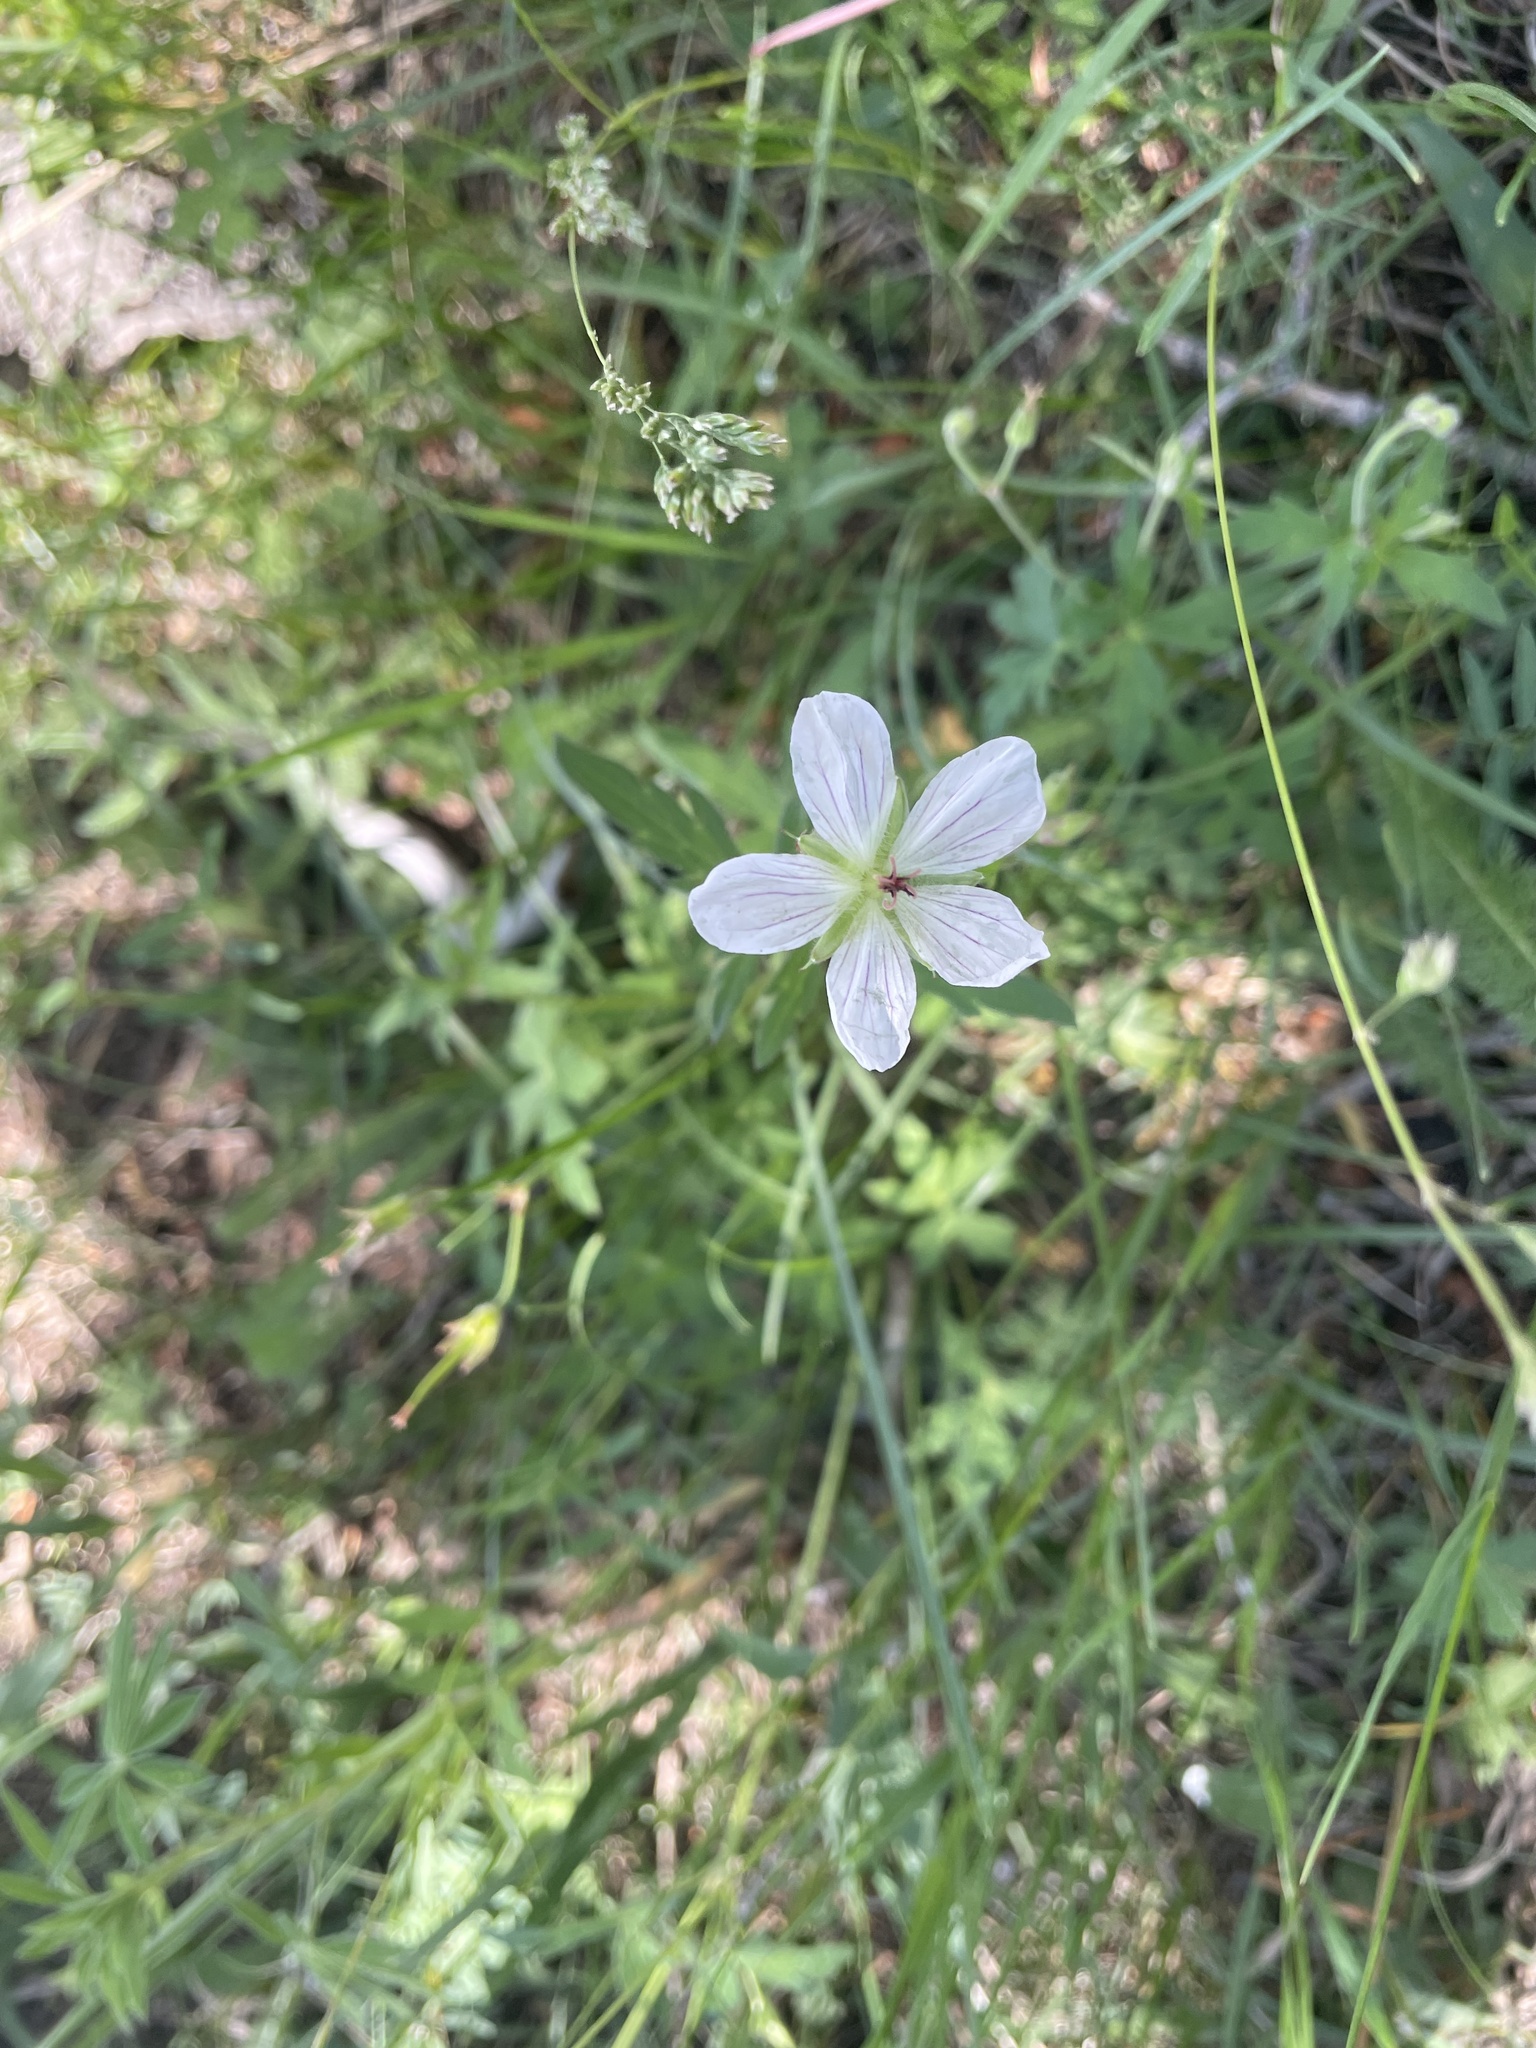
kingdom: Plantae
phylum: Tracheophyta
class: Magnoliopsida
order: Geraniales
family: Geraniaceae
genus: Geranium
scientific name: Geranium richardsonii
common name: Richardson's crane's-bill
